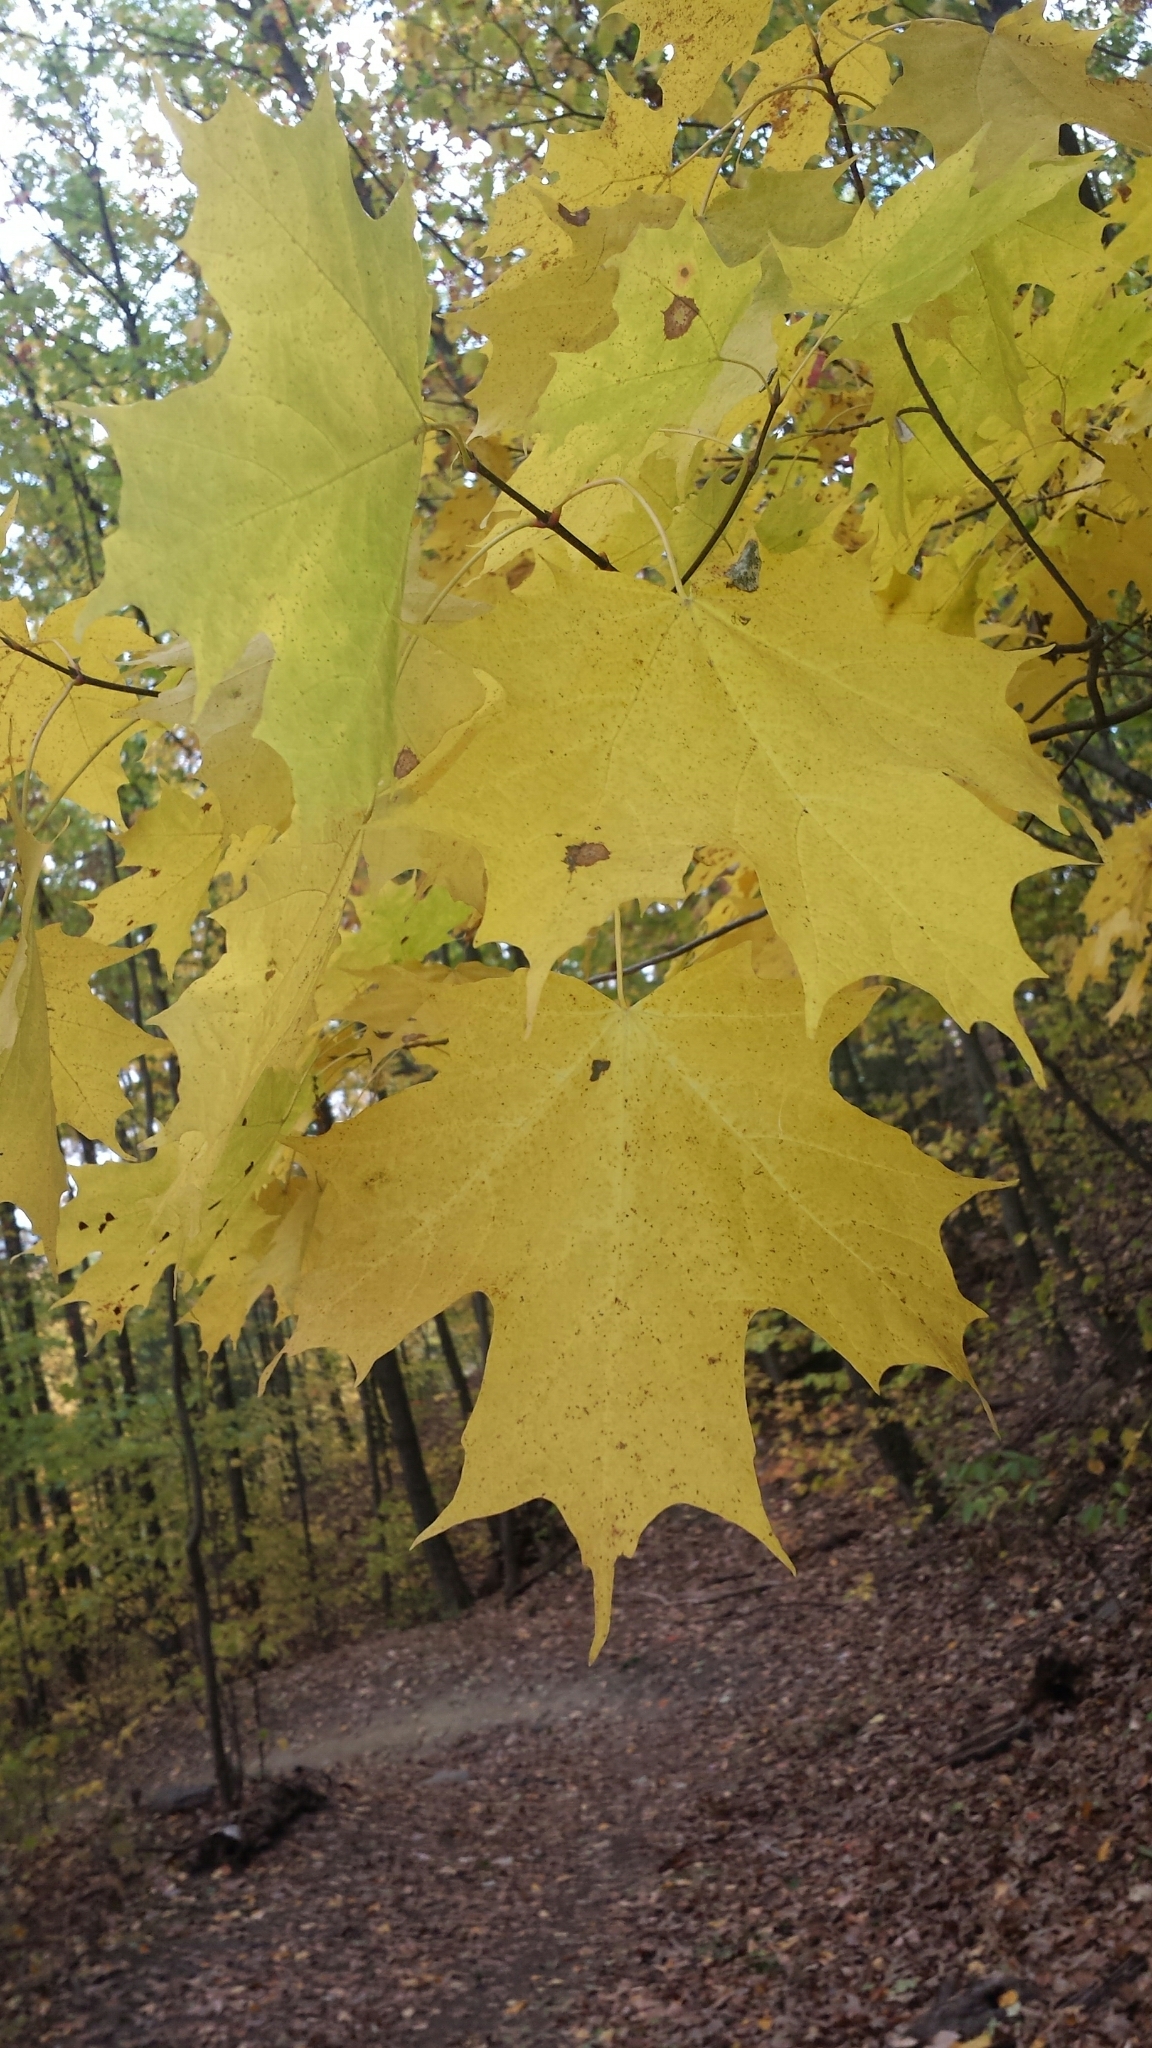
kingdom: Plantae
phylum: Tracheophyta
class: Magnoliopsida
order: Sapindales
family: Sapindaceae
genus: Acer
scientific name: Acer saccharum
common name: Sugar maple
